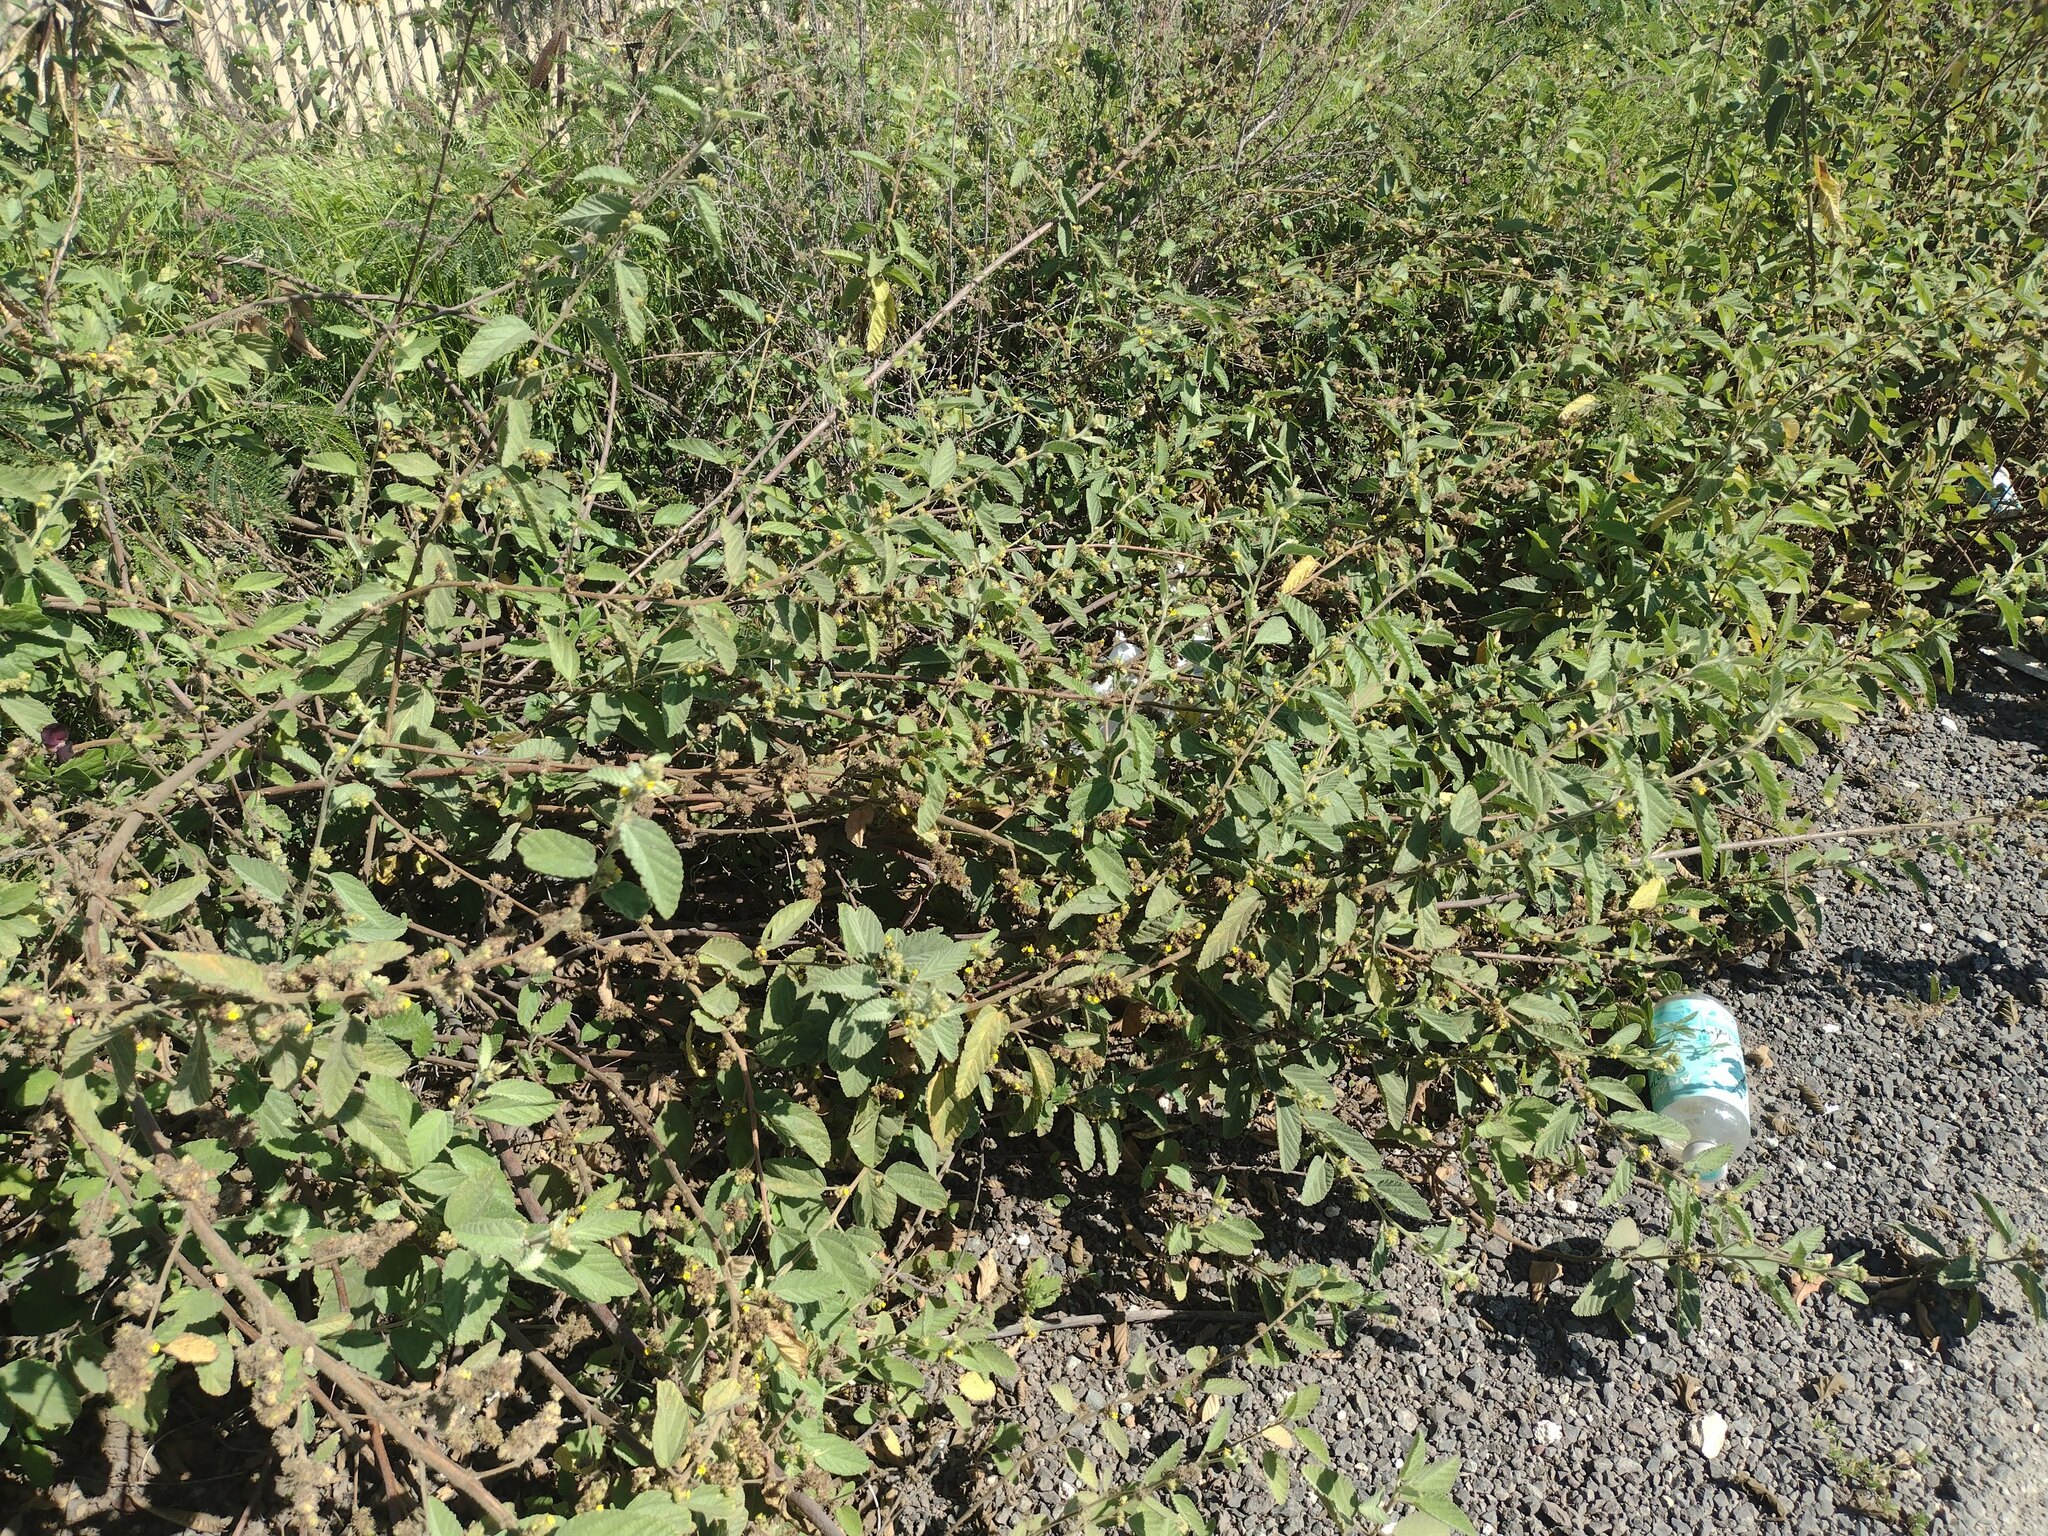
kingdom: Plantae
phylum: Tracheophyta
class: Magnoliopsida
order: Malvales
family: Malvaceae
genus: Waltheria
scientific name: Waltheria indica
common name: Leather-coat
